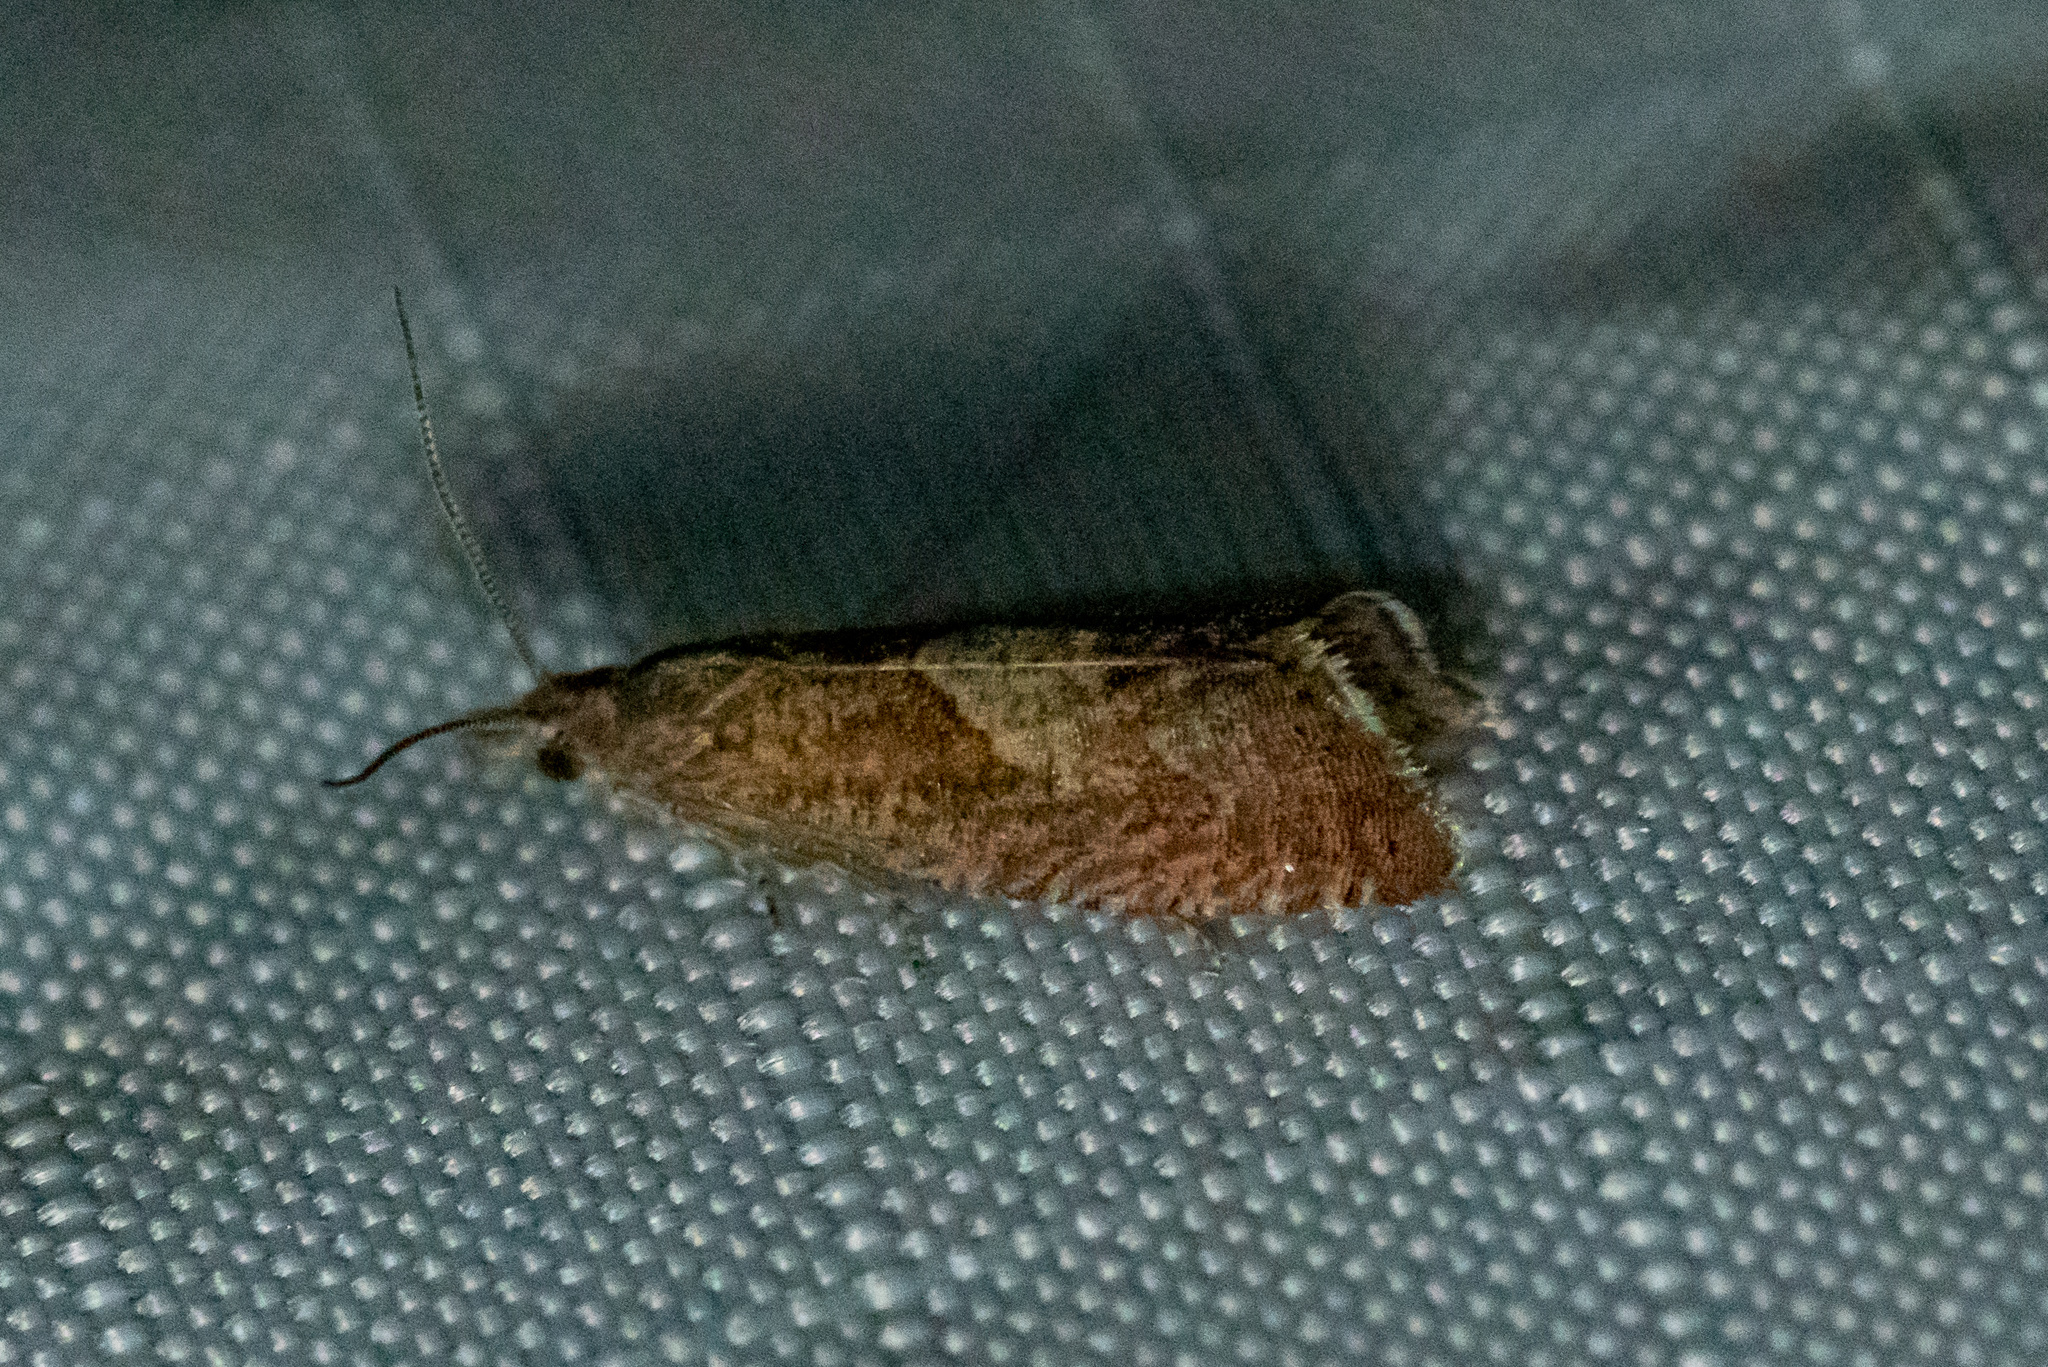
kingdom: Animalia
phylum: Arthropoda
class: Insecta
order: Lepidoptera
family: Tortricidae
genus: Pelochrista
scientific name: Pelochrista derelicta
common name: Derelict pelochrista moth
